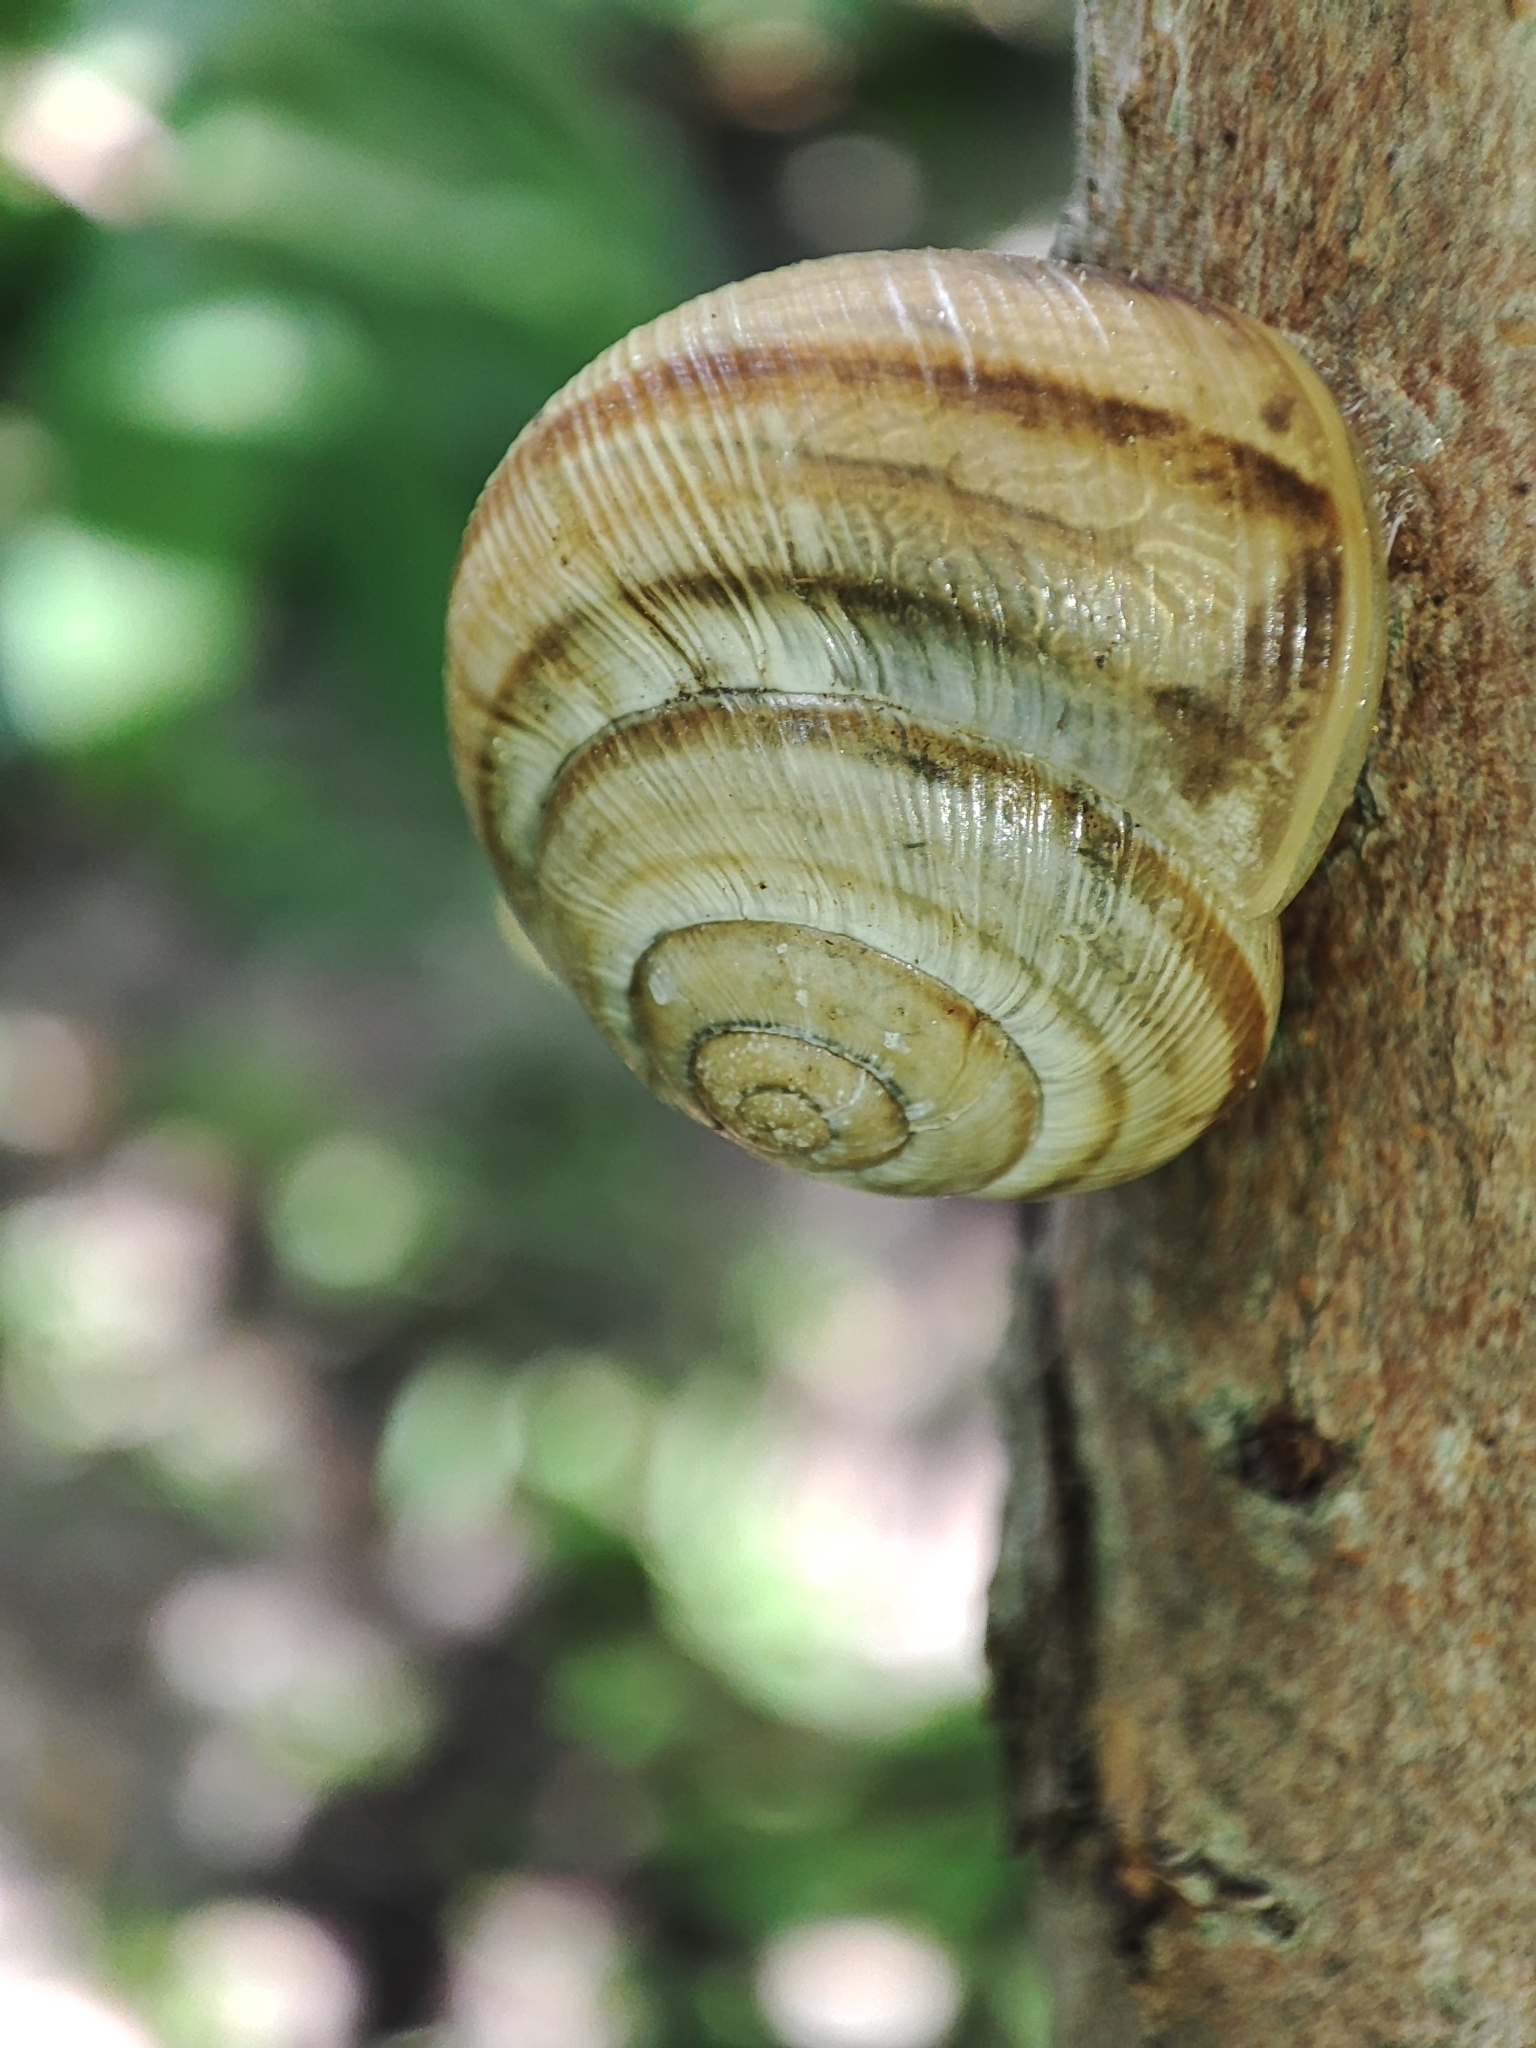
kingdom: Animalia
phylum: Mollusca
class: Gastropoda
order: Stylommatophora
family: Helicidae
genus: Caucasotachea
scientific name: Caucasotachea vindobonensis
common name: European helicid land snail
